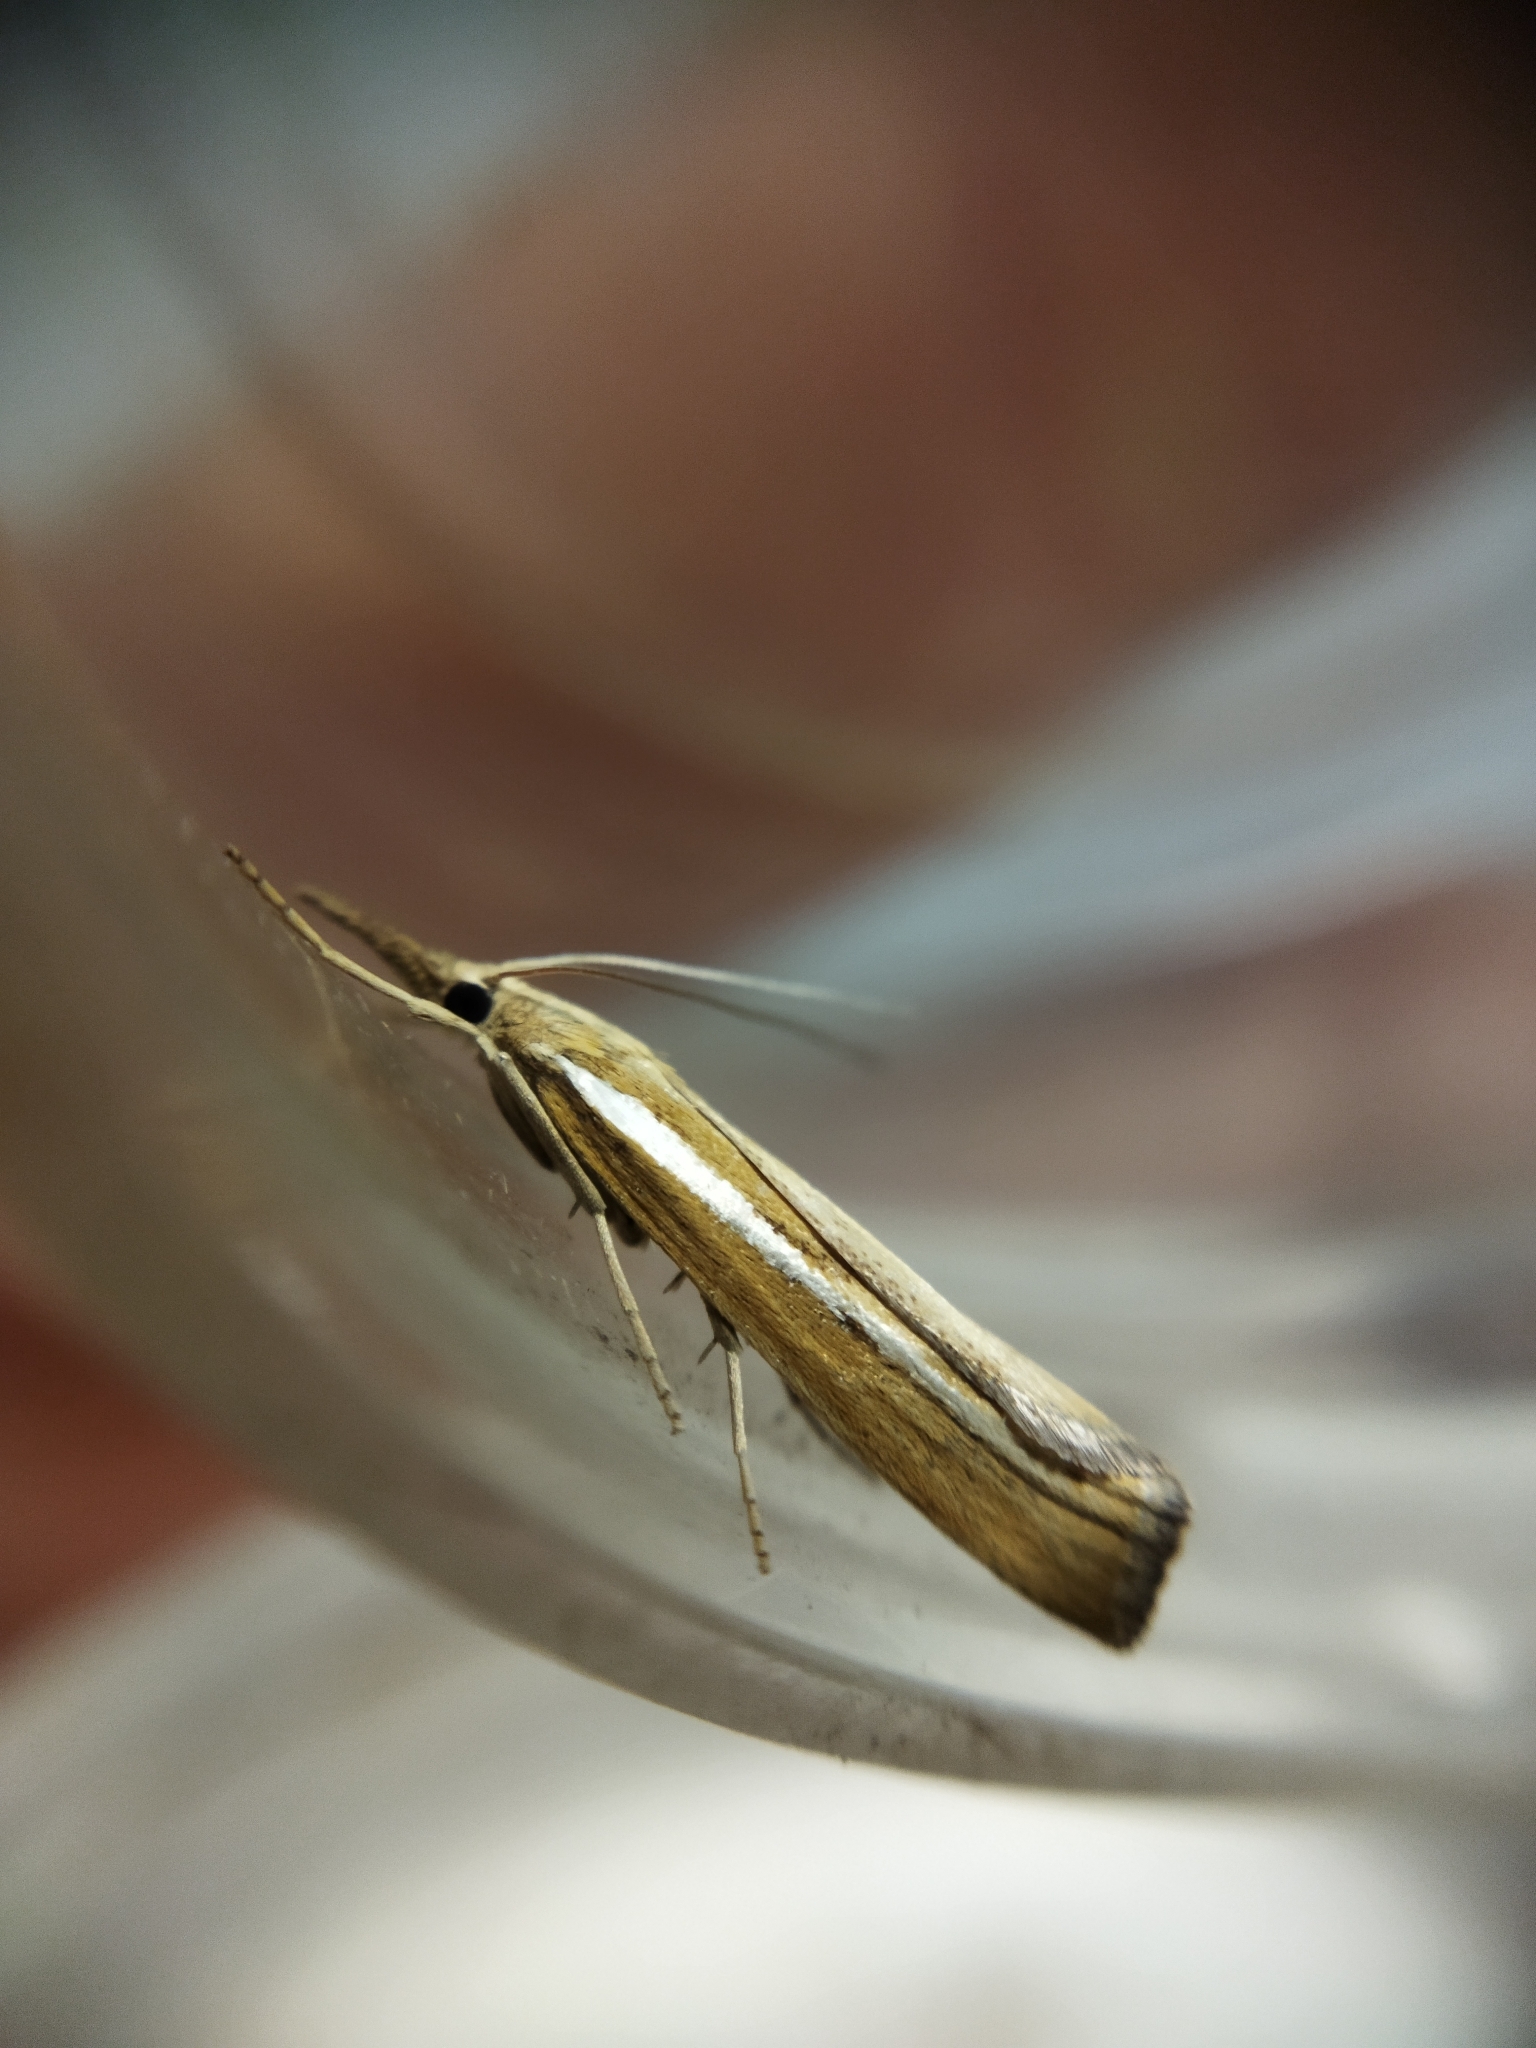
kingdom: Animalia
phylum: Arthropoda
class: Insecta
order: Lepidoptera
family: Crambidae
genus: Agriphila
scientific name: Agriphila tristellus
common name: Common grass-veneer
